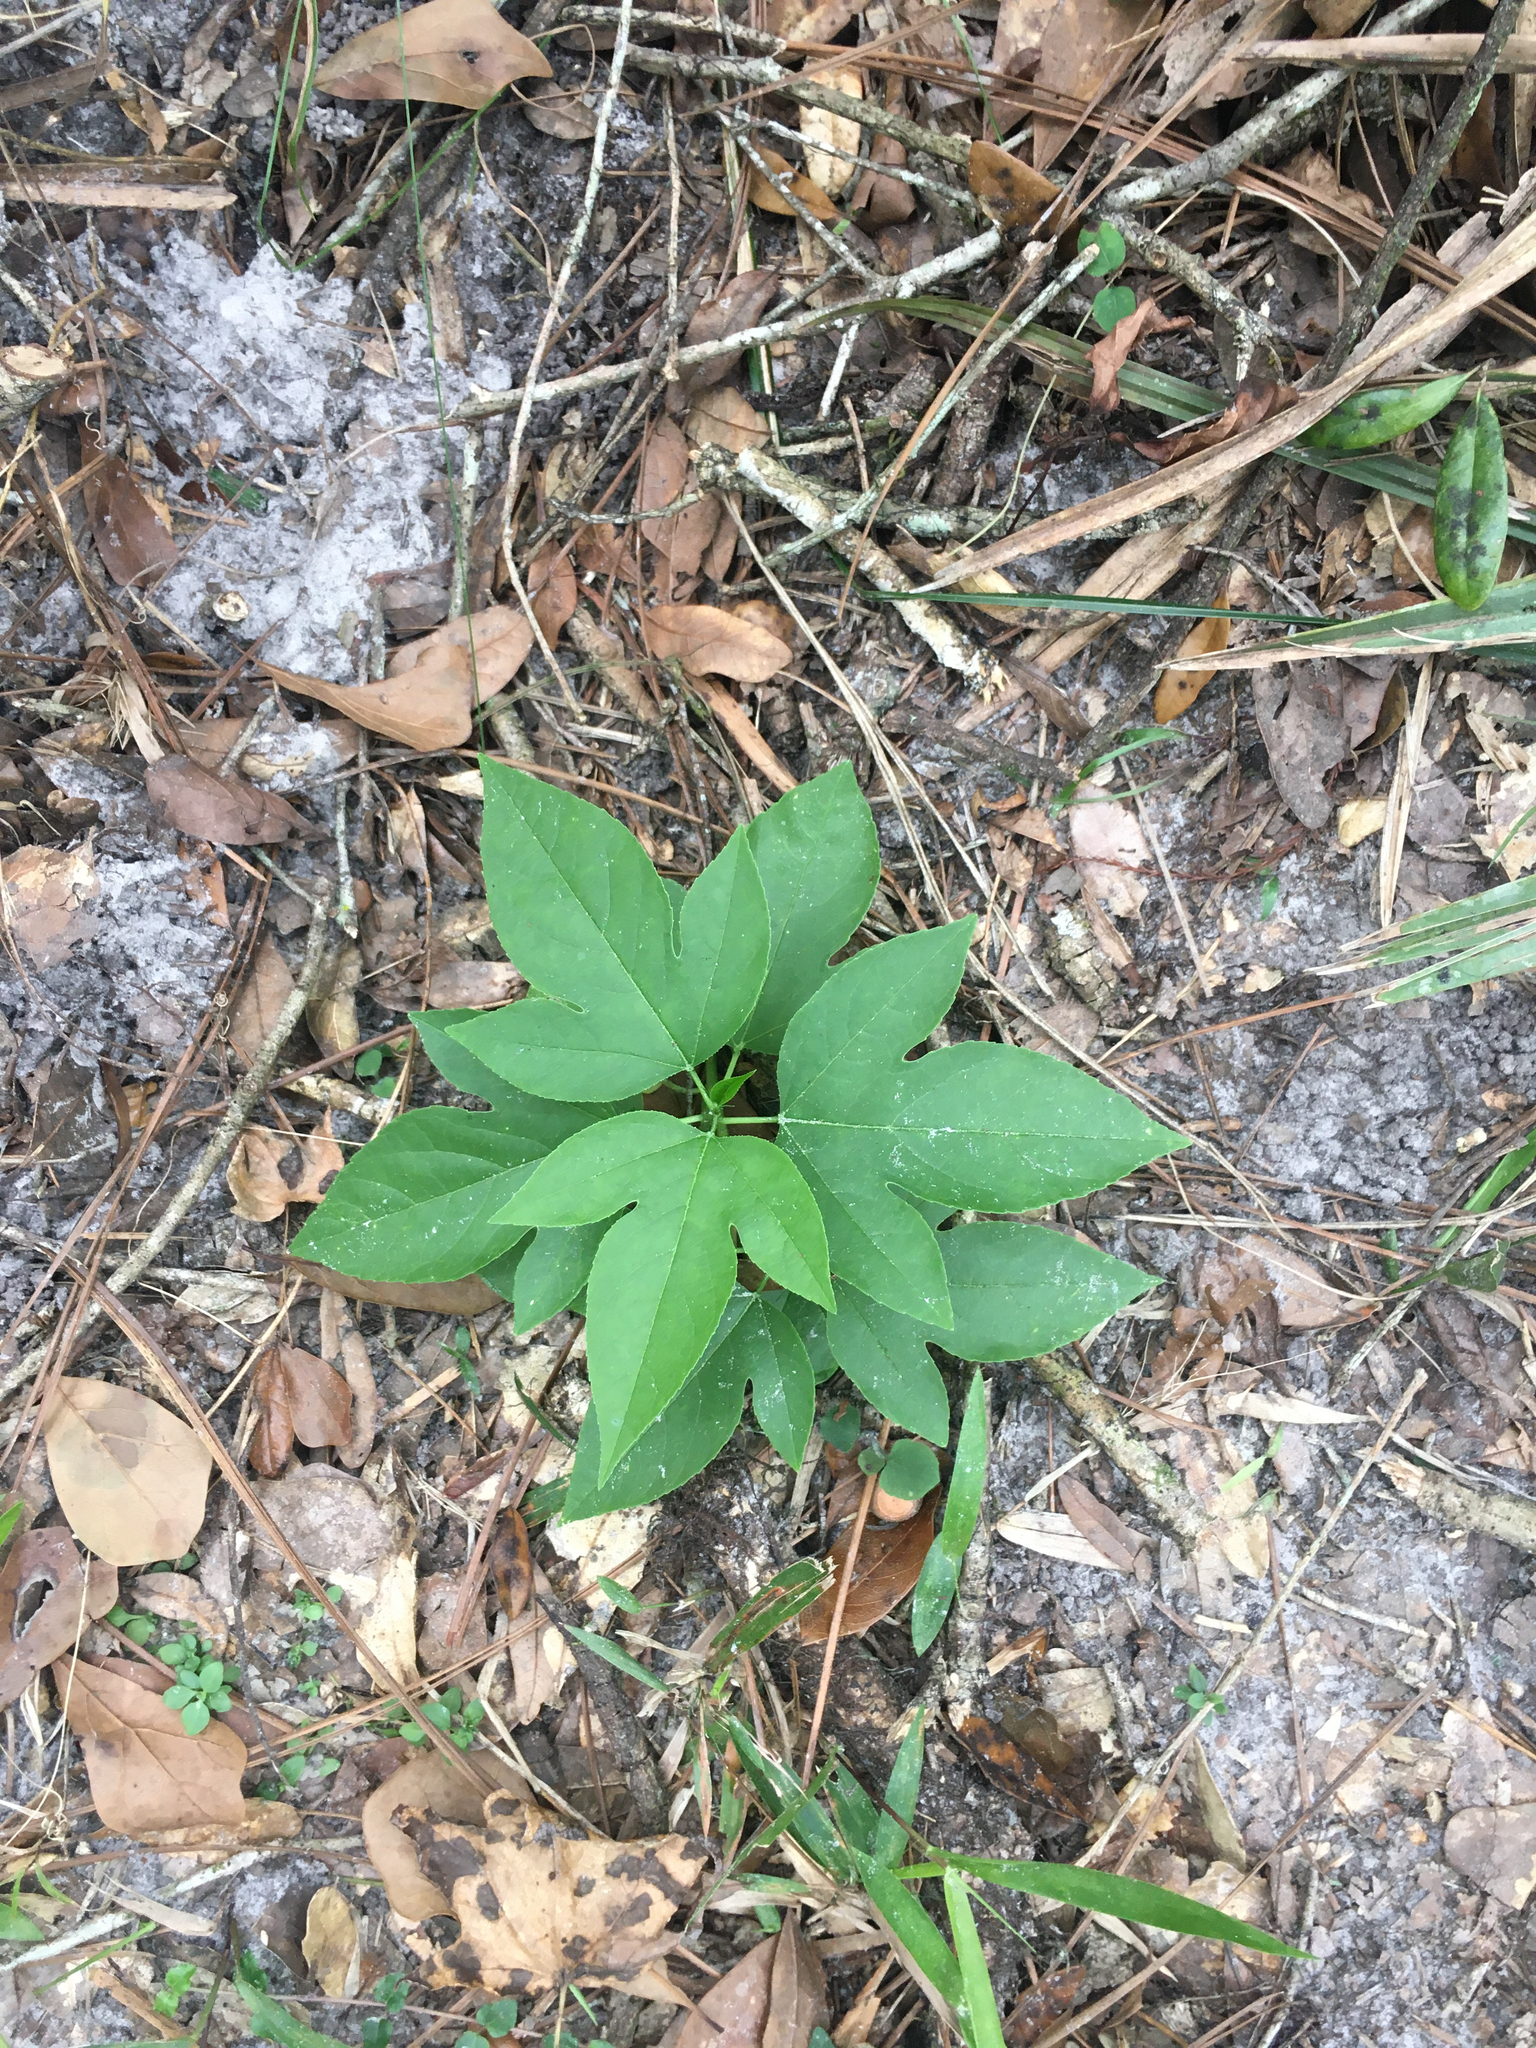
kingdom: Plantae
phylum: Tracheophyta
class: Magnoliopsida
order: Malpighiales
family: Passifloraceae
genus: Passiflora
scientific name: Passiflora incarnata
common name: Apricot-vine
